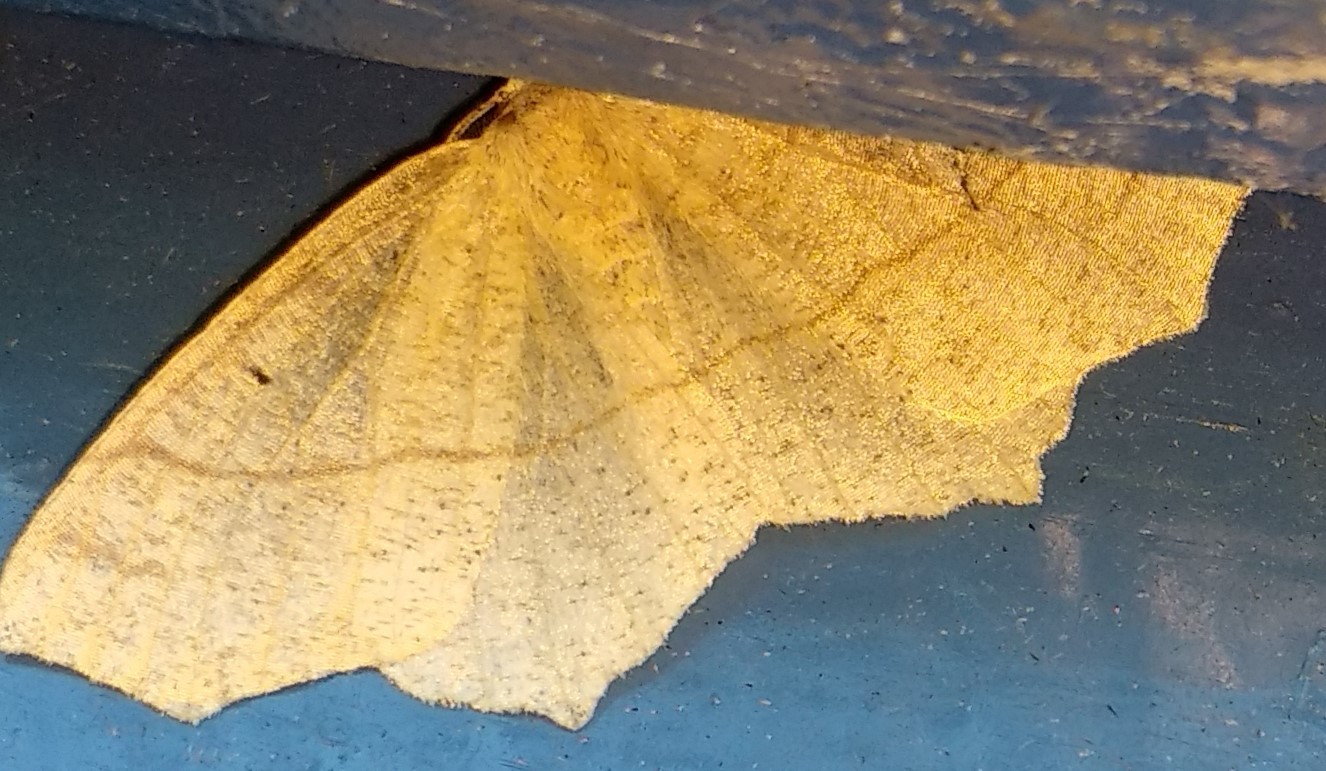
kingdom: Animalia
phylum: Arthropoda
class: Insecta
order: Lepidoptera
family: Geometridae
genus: Besma
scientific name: Besma quercivoraria
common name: Oak besma
